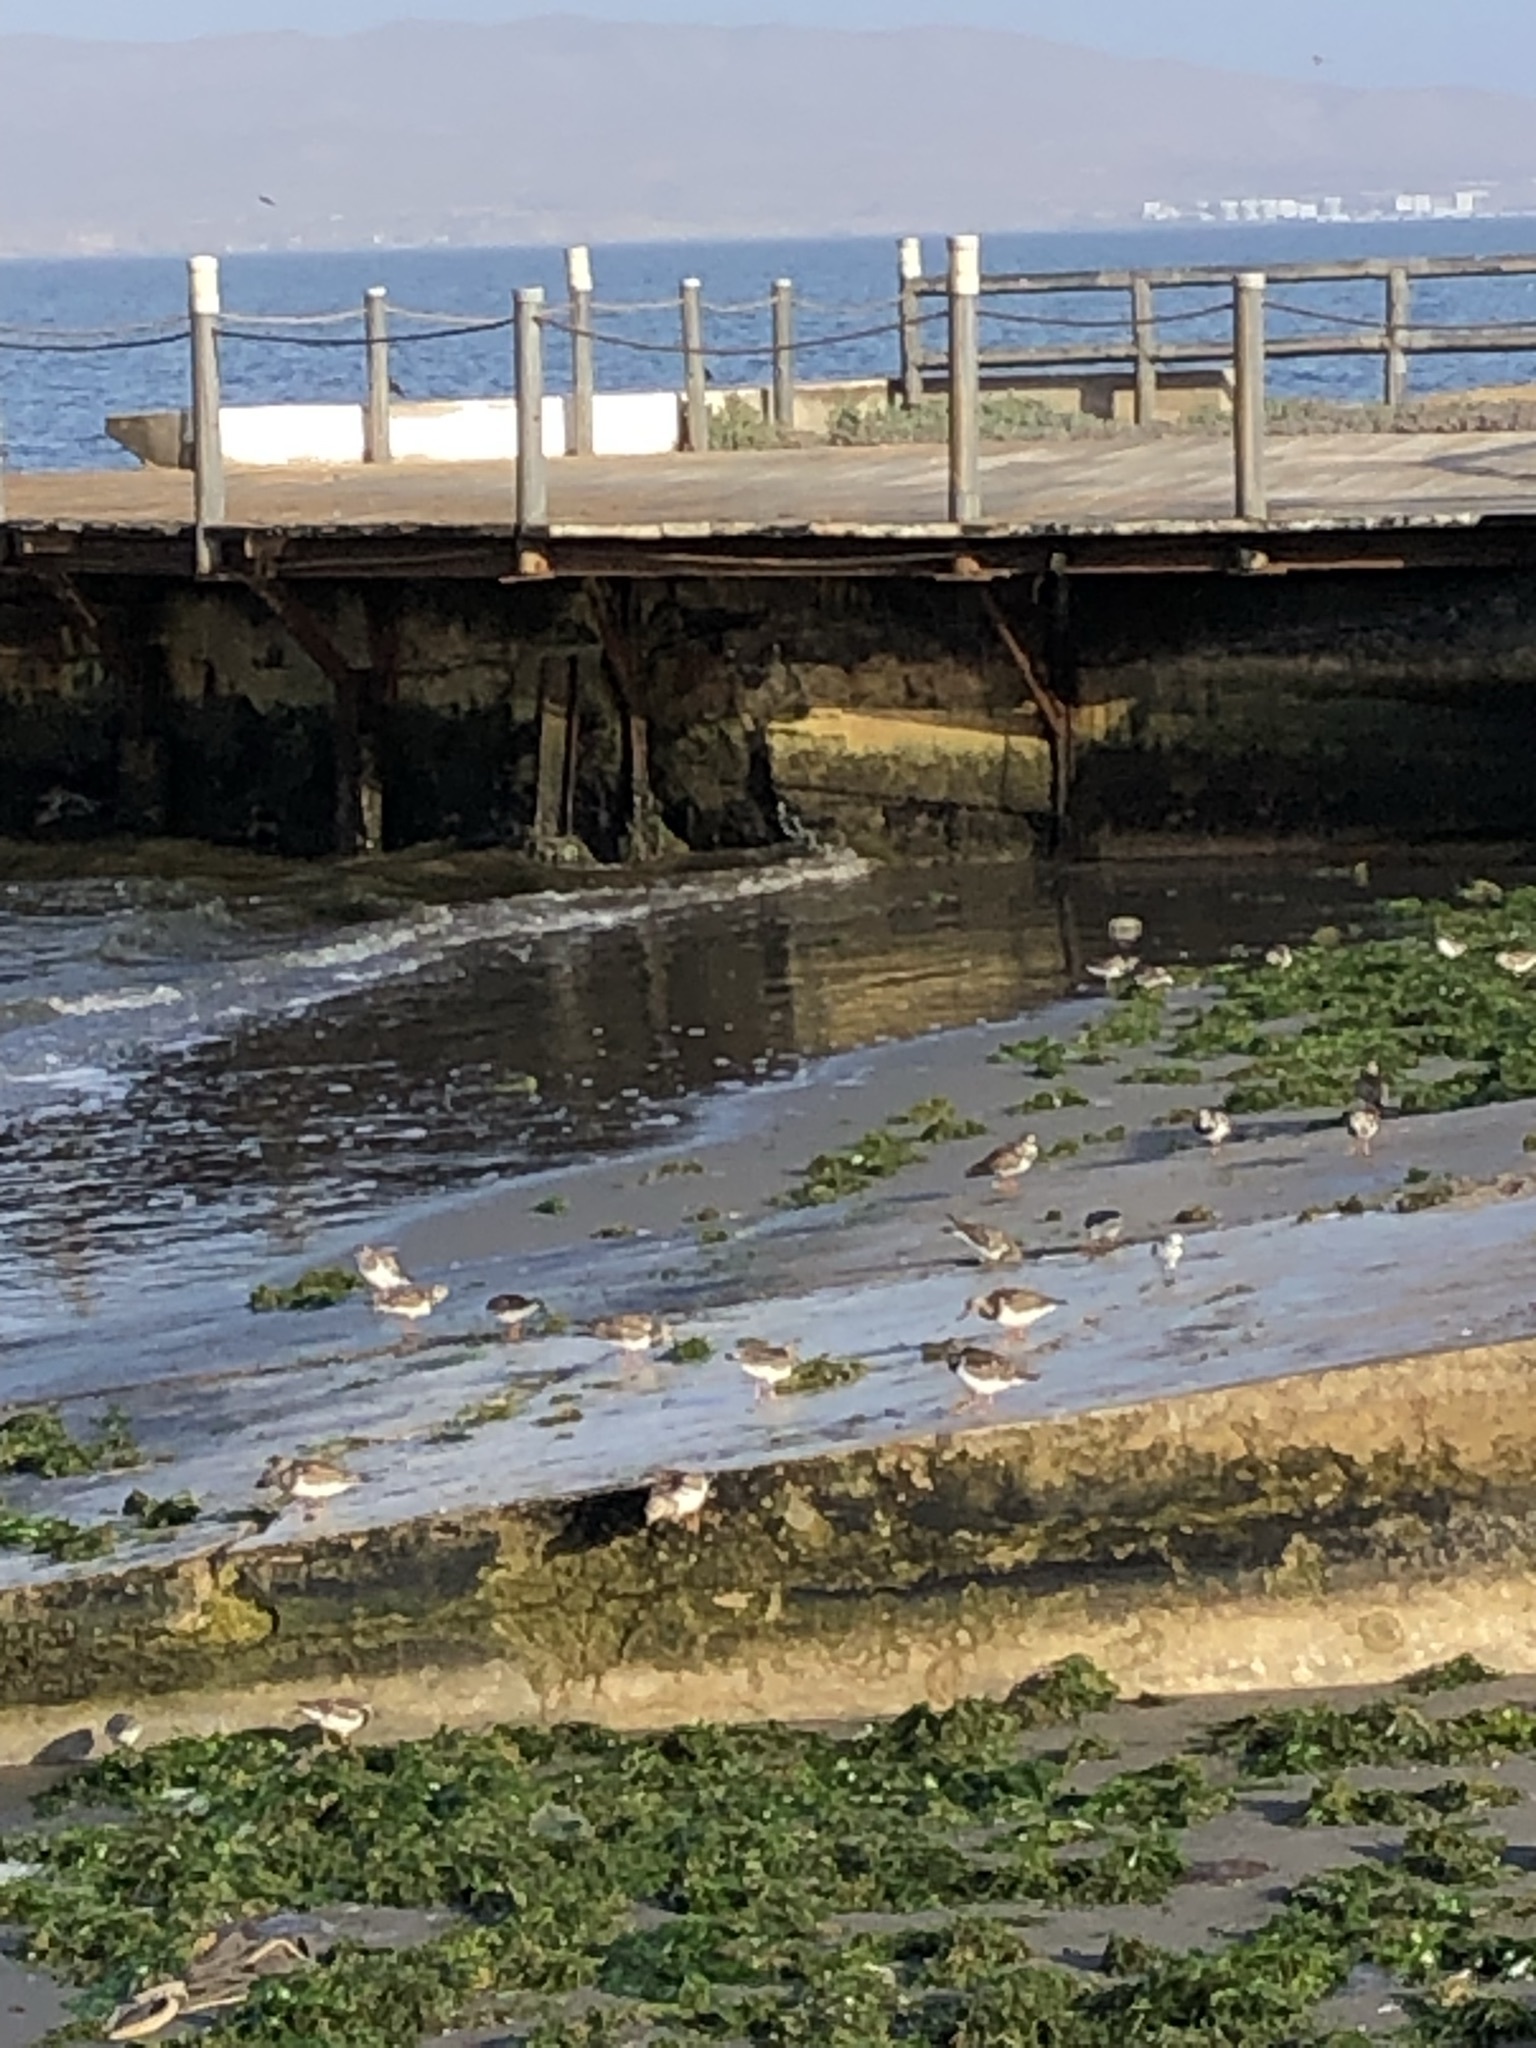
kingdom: Animalia
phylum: Chordata
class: Aves
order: Charadriiformes
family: Scolopacidae
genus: Arenaria
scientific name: Arenaria interpres
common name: Ruddy turnstone
